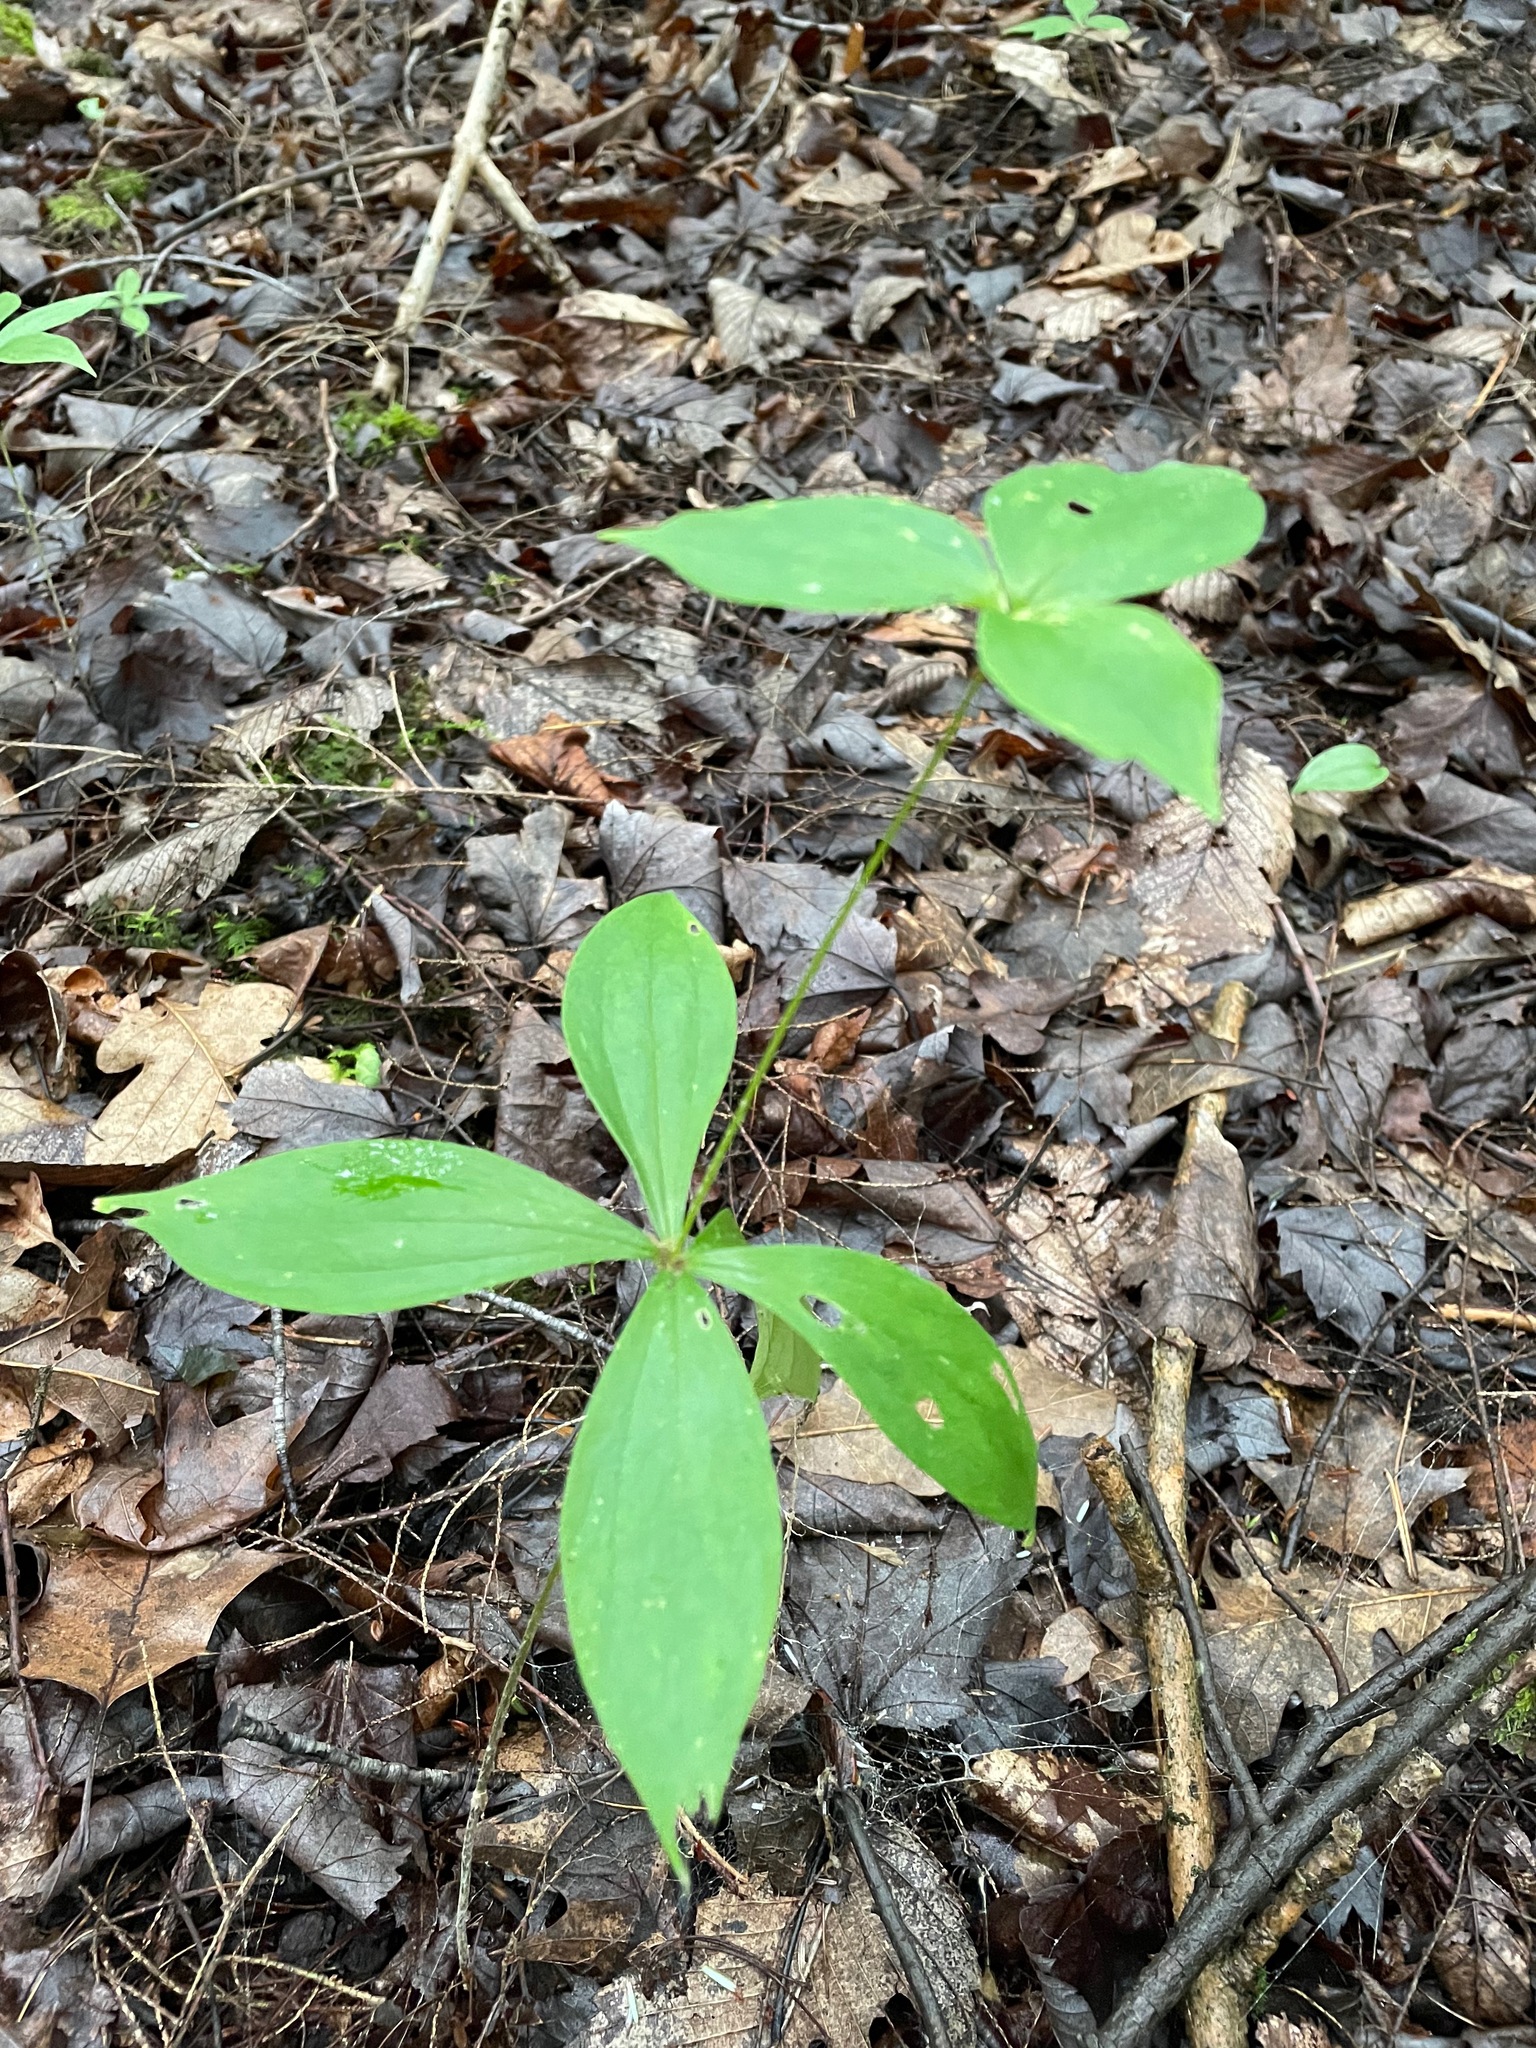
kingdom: Plantae
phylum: Tracheophyta
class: Liliopsida
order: Liliales
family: Liliaceae
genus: Medeola
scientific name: Medeola virginiana
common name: Indian cucumber-root
